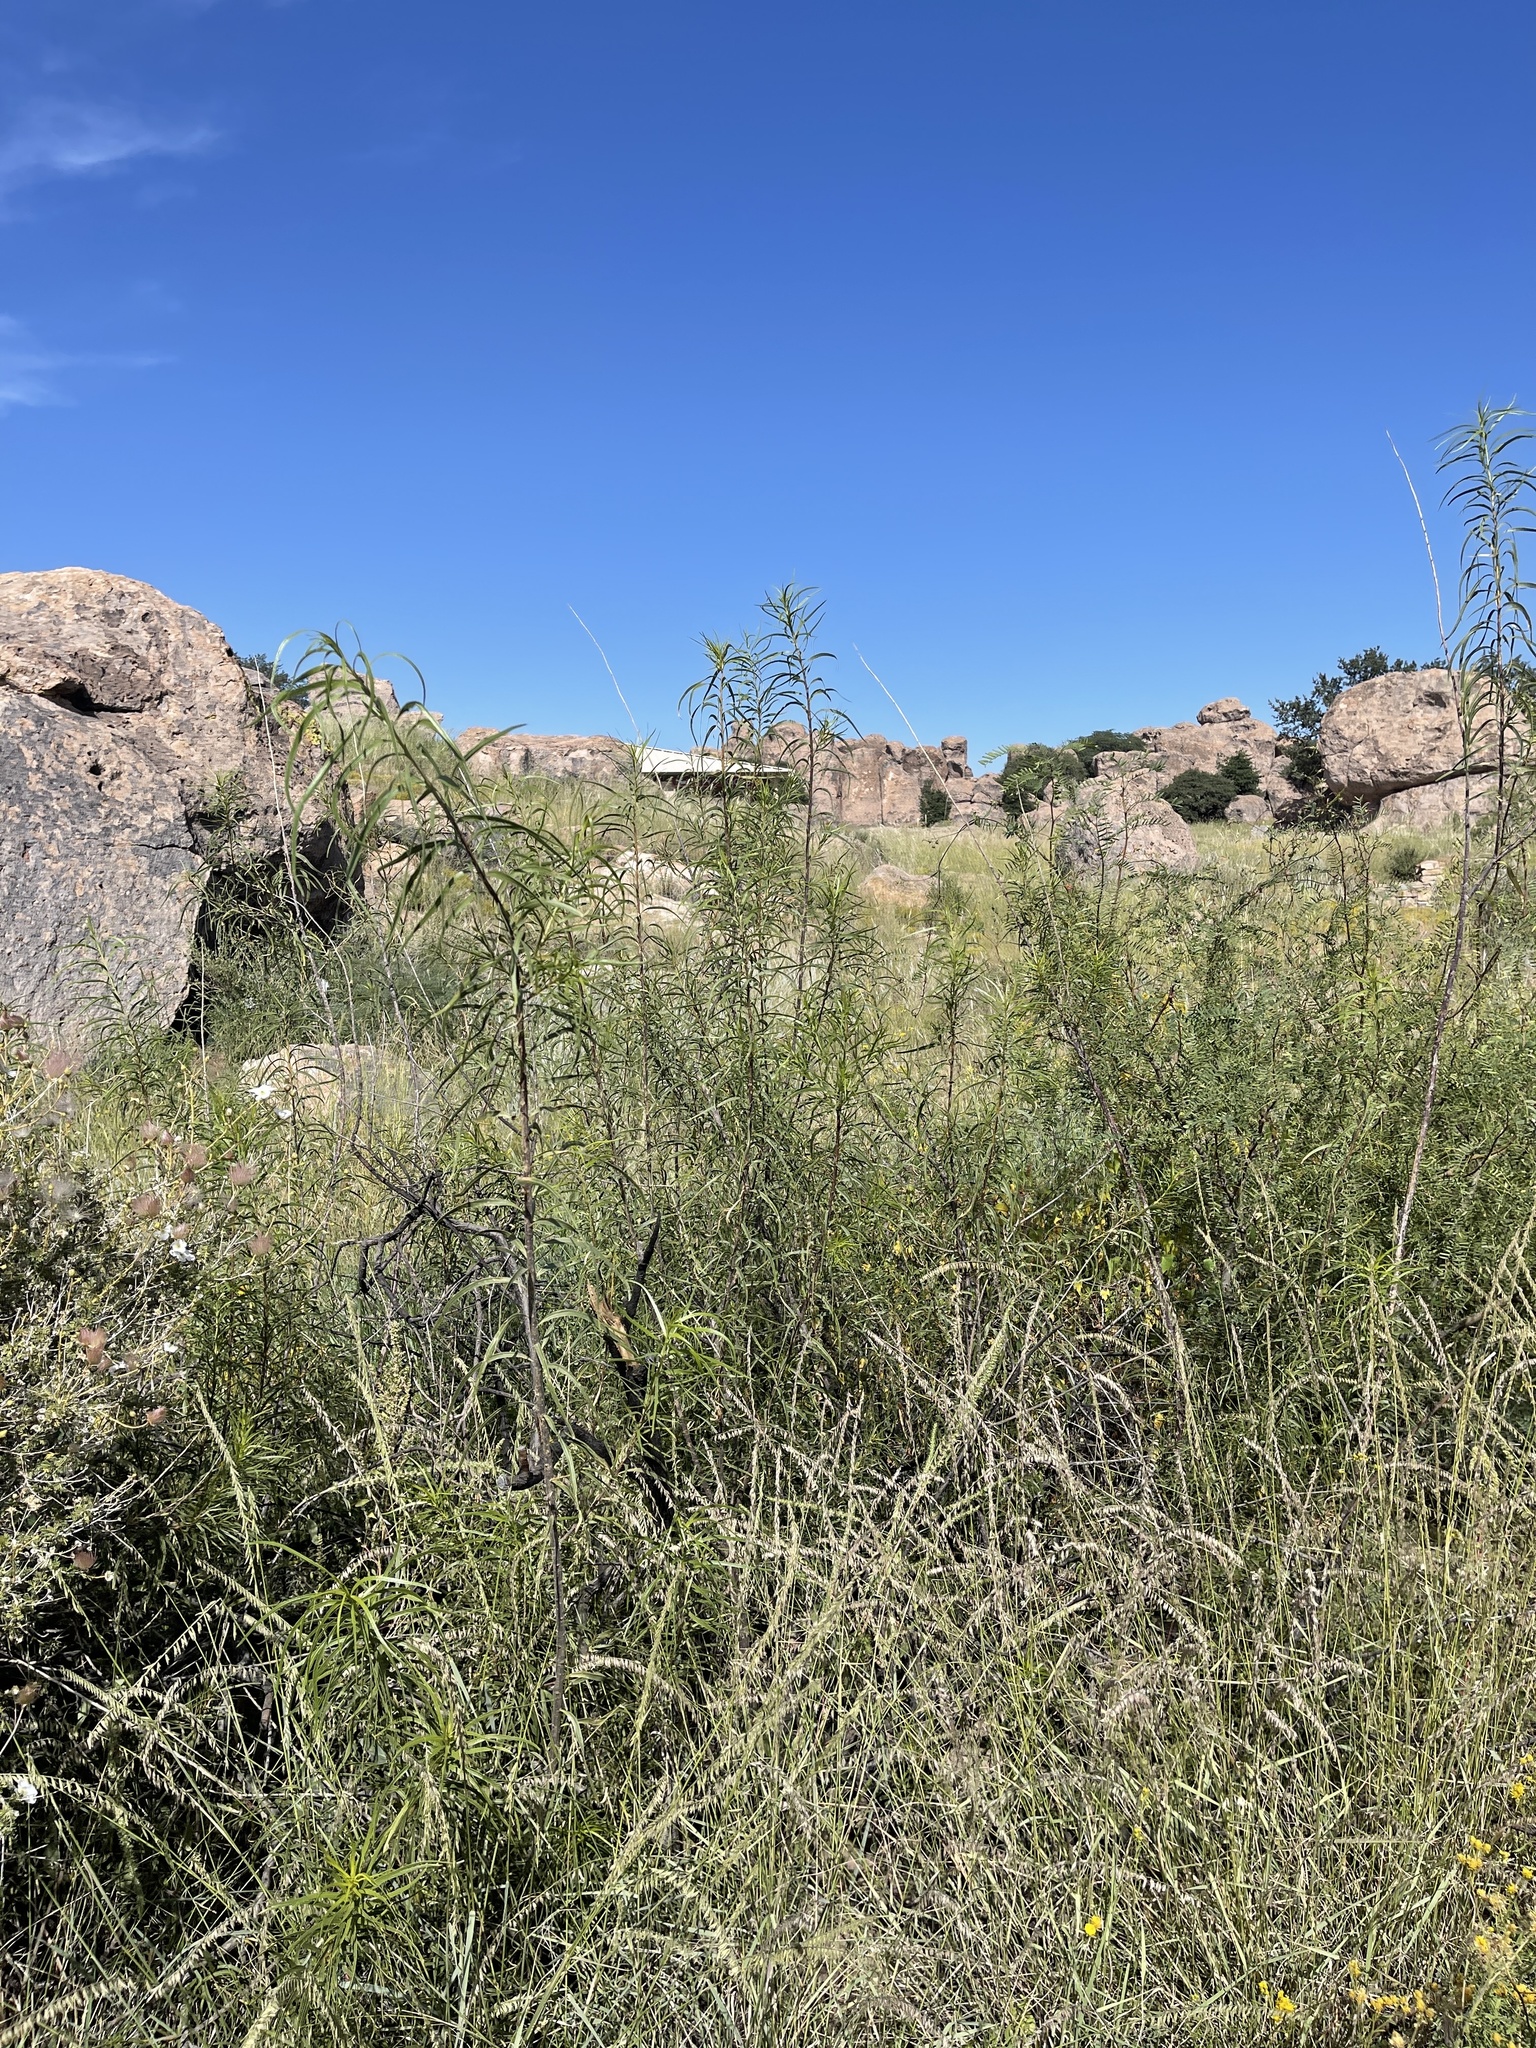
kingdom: Plantae
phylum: Tracheophyta
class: Magnoliopsida
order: Lamiales
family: Bignoniaceae
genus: Chilopsis
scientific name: Chilopsis linearis
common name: Desert-willow
